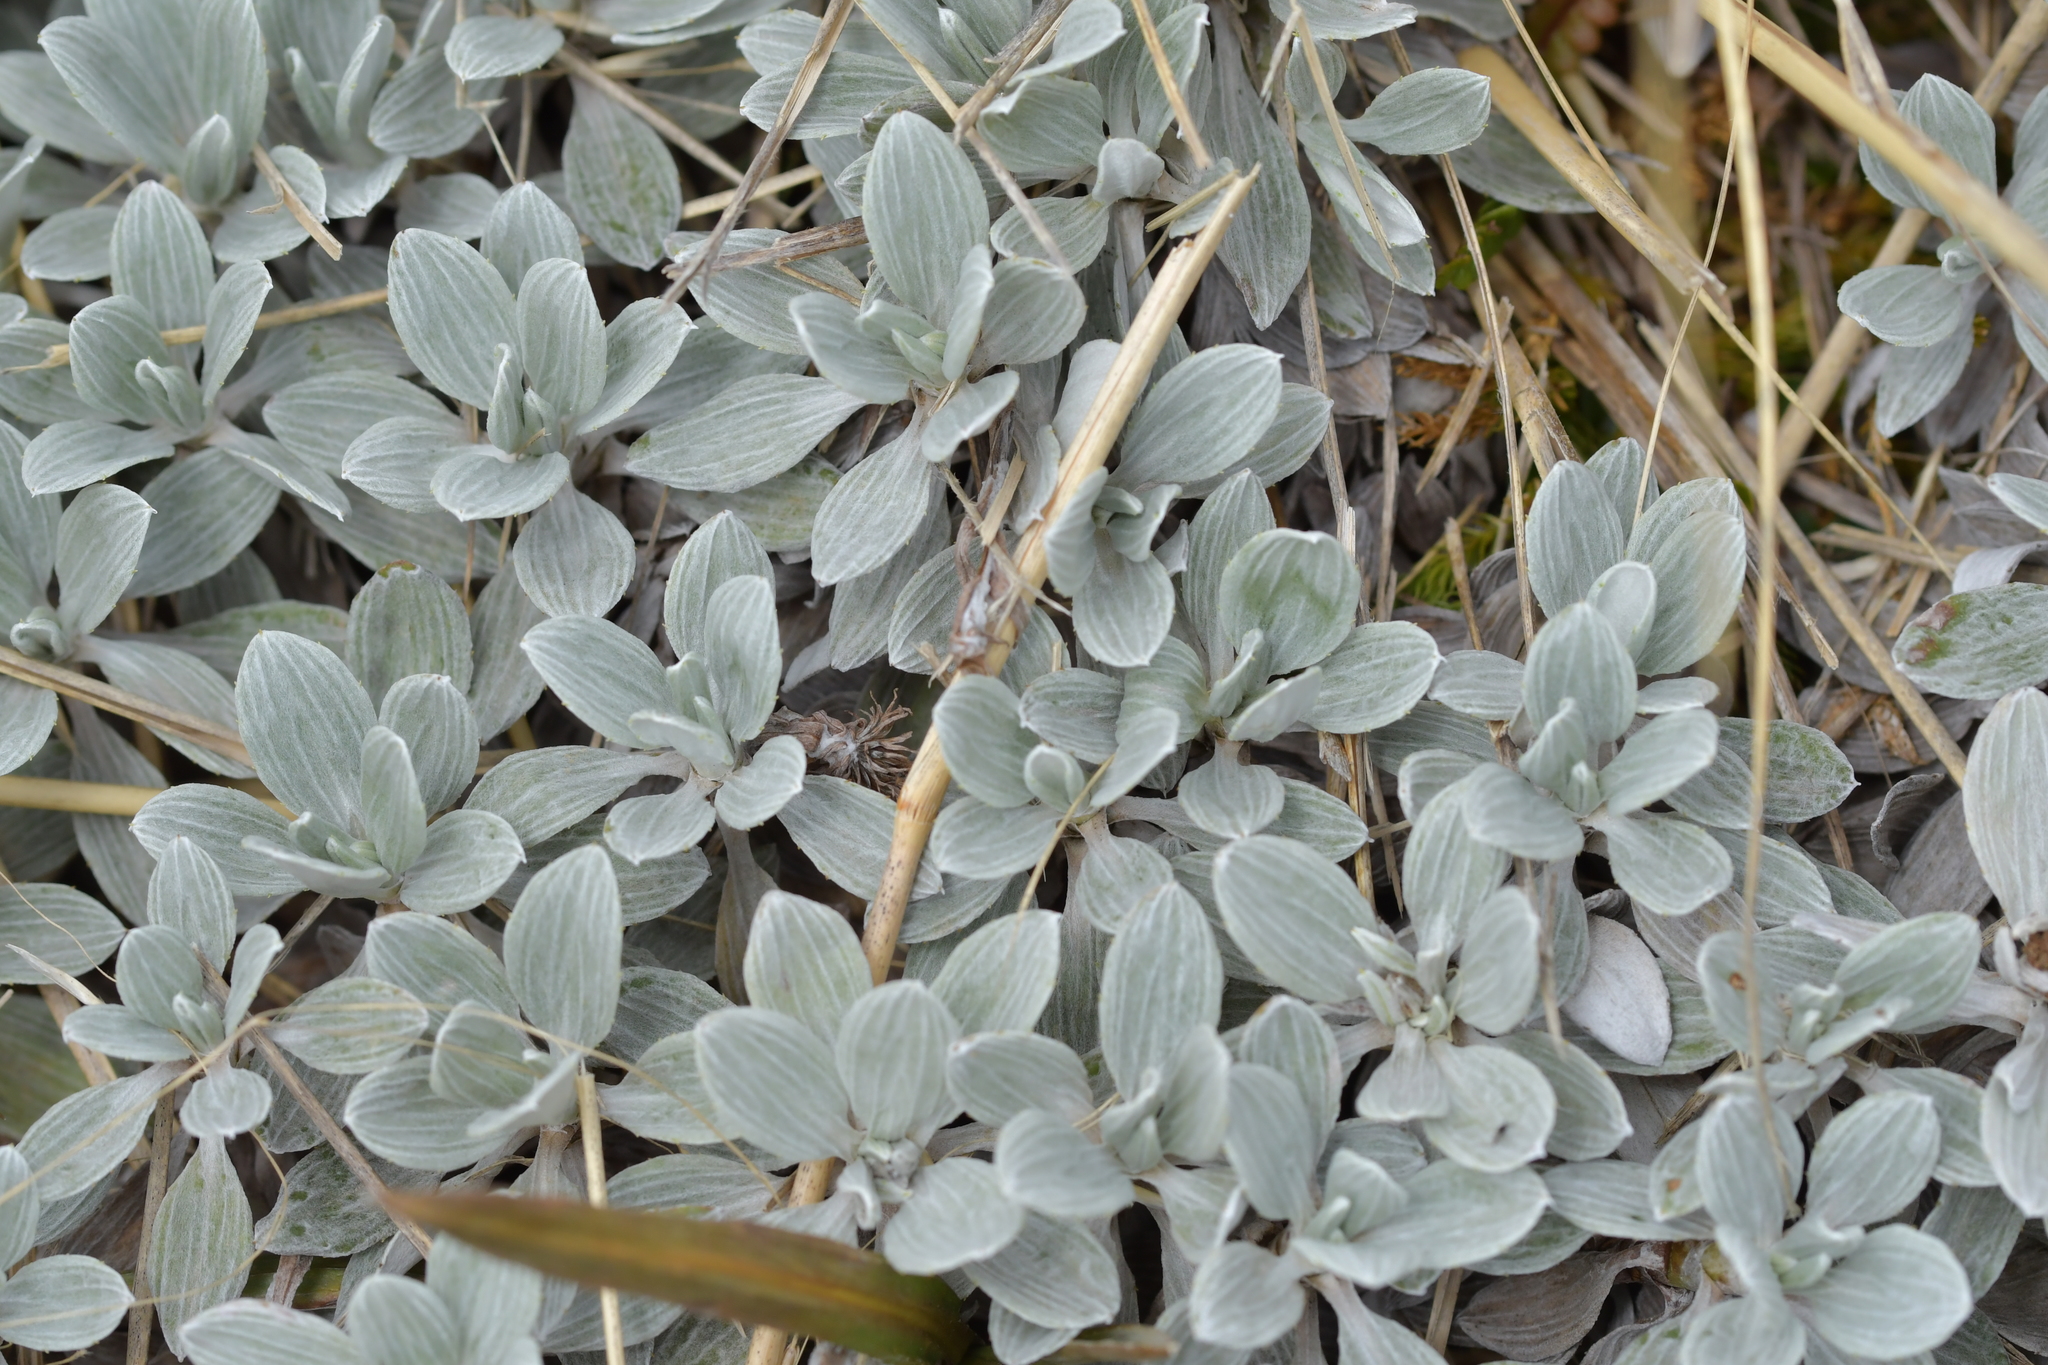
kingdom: Plantae
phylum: Tracheophyta
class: Magnoliopsida
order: Asterales
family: Asteraceae
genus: Celmisia
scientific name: Celmisia discolor
